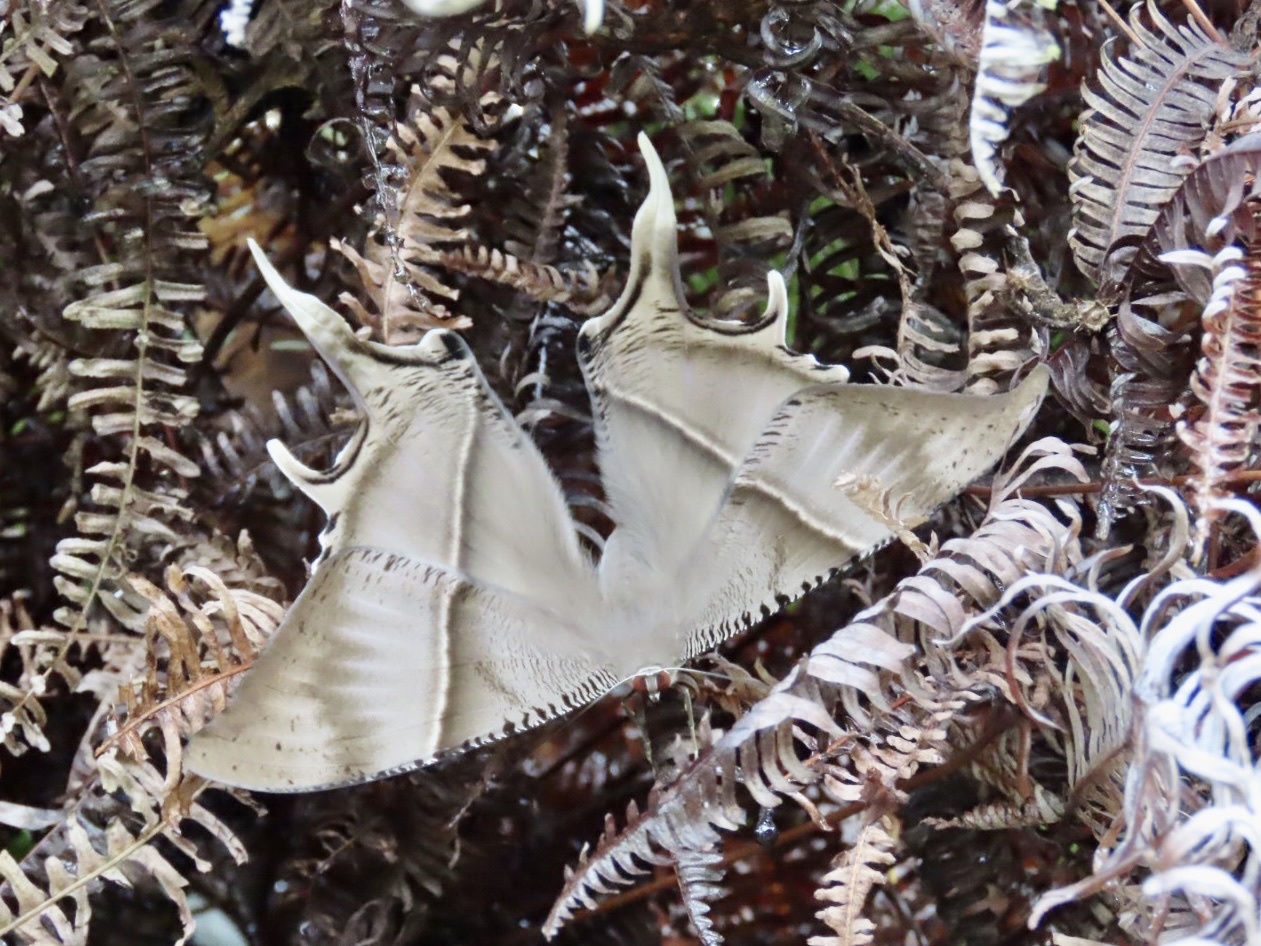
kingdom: Animalia
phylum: Arthropoda
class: Insecta
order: Lepidoptera
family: Uraniidae
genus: Lyssa
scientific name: Lyssa zampa
